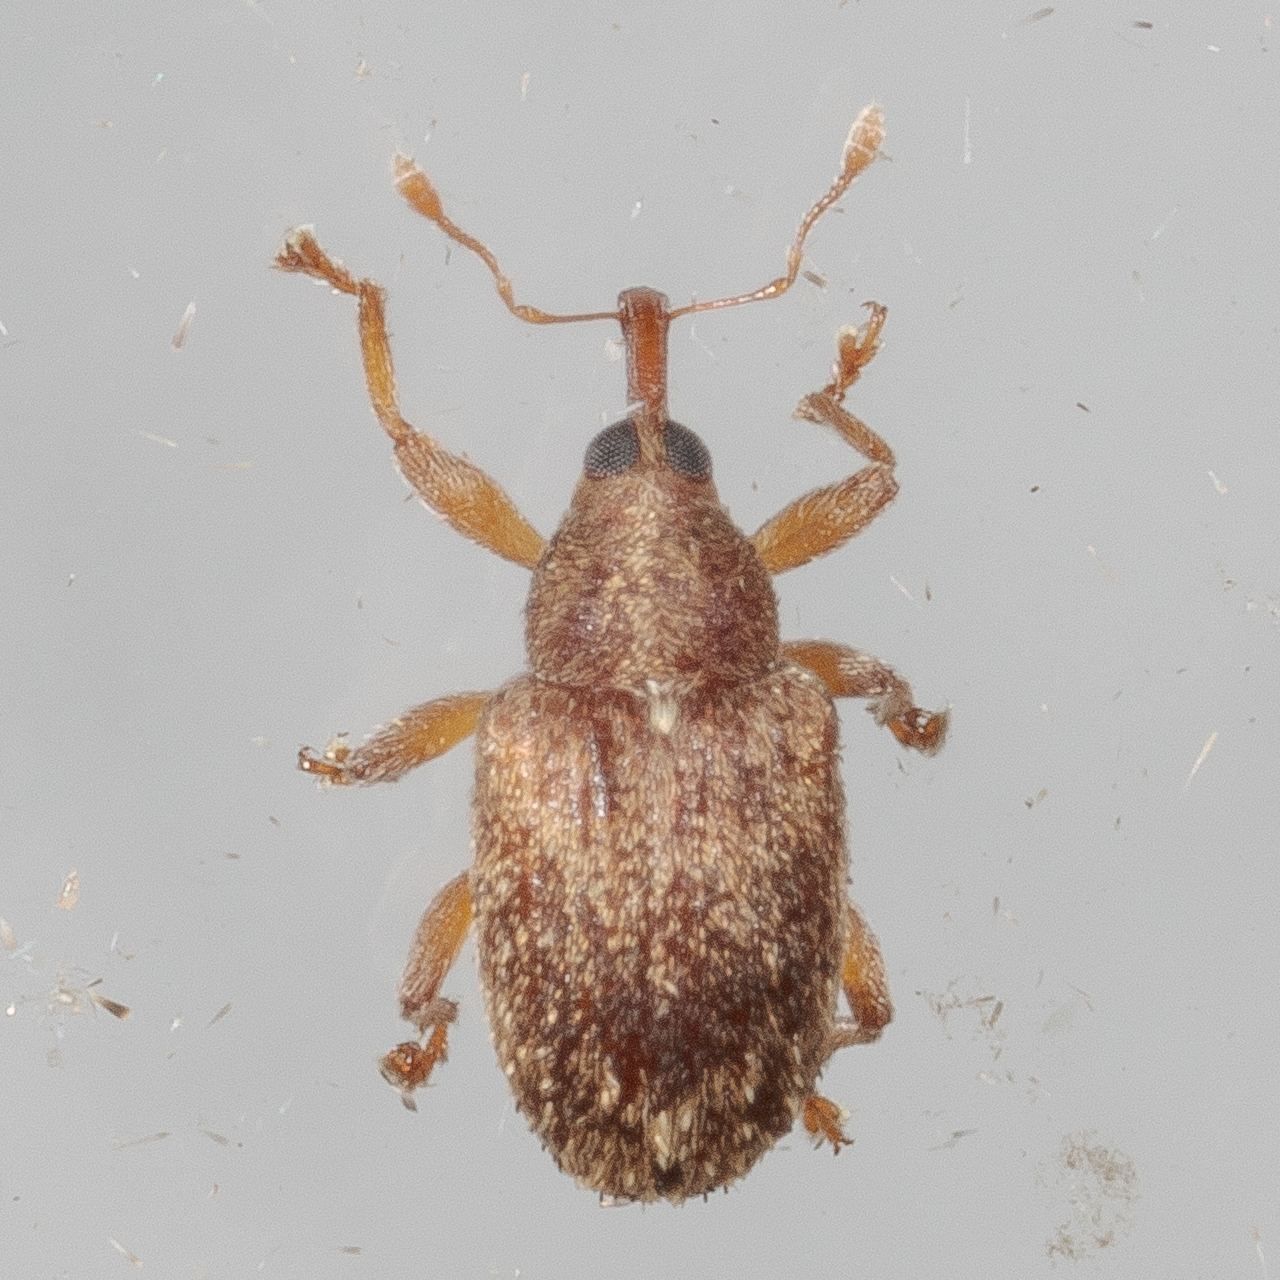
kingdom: Animalia
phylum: Arthropoda
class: Insecta
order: Coleoptera
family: Curculionidae
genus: Lignyodes
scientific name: Lignyodes horridulus
